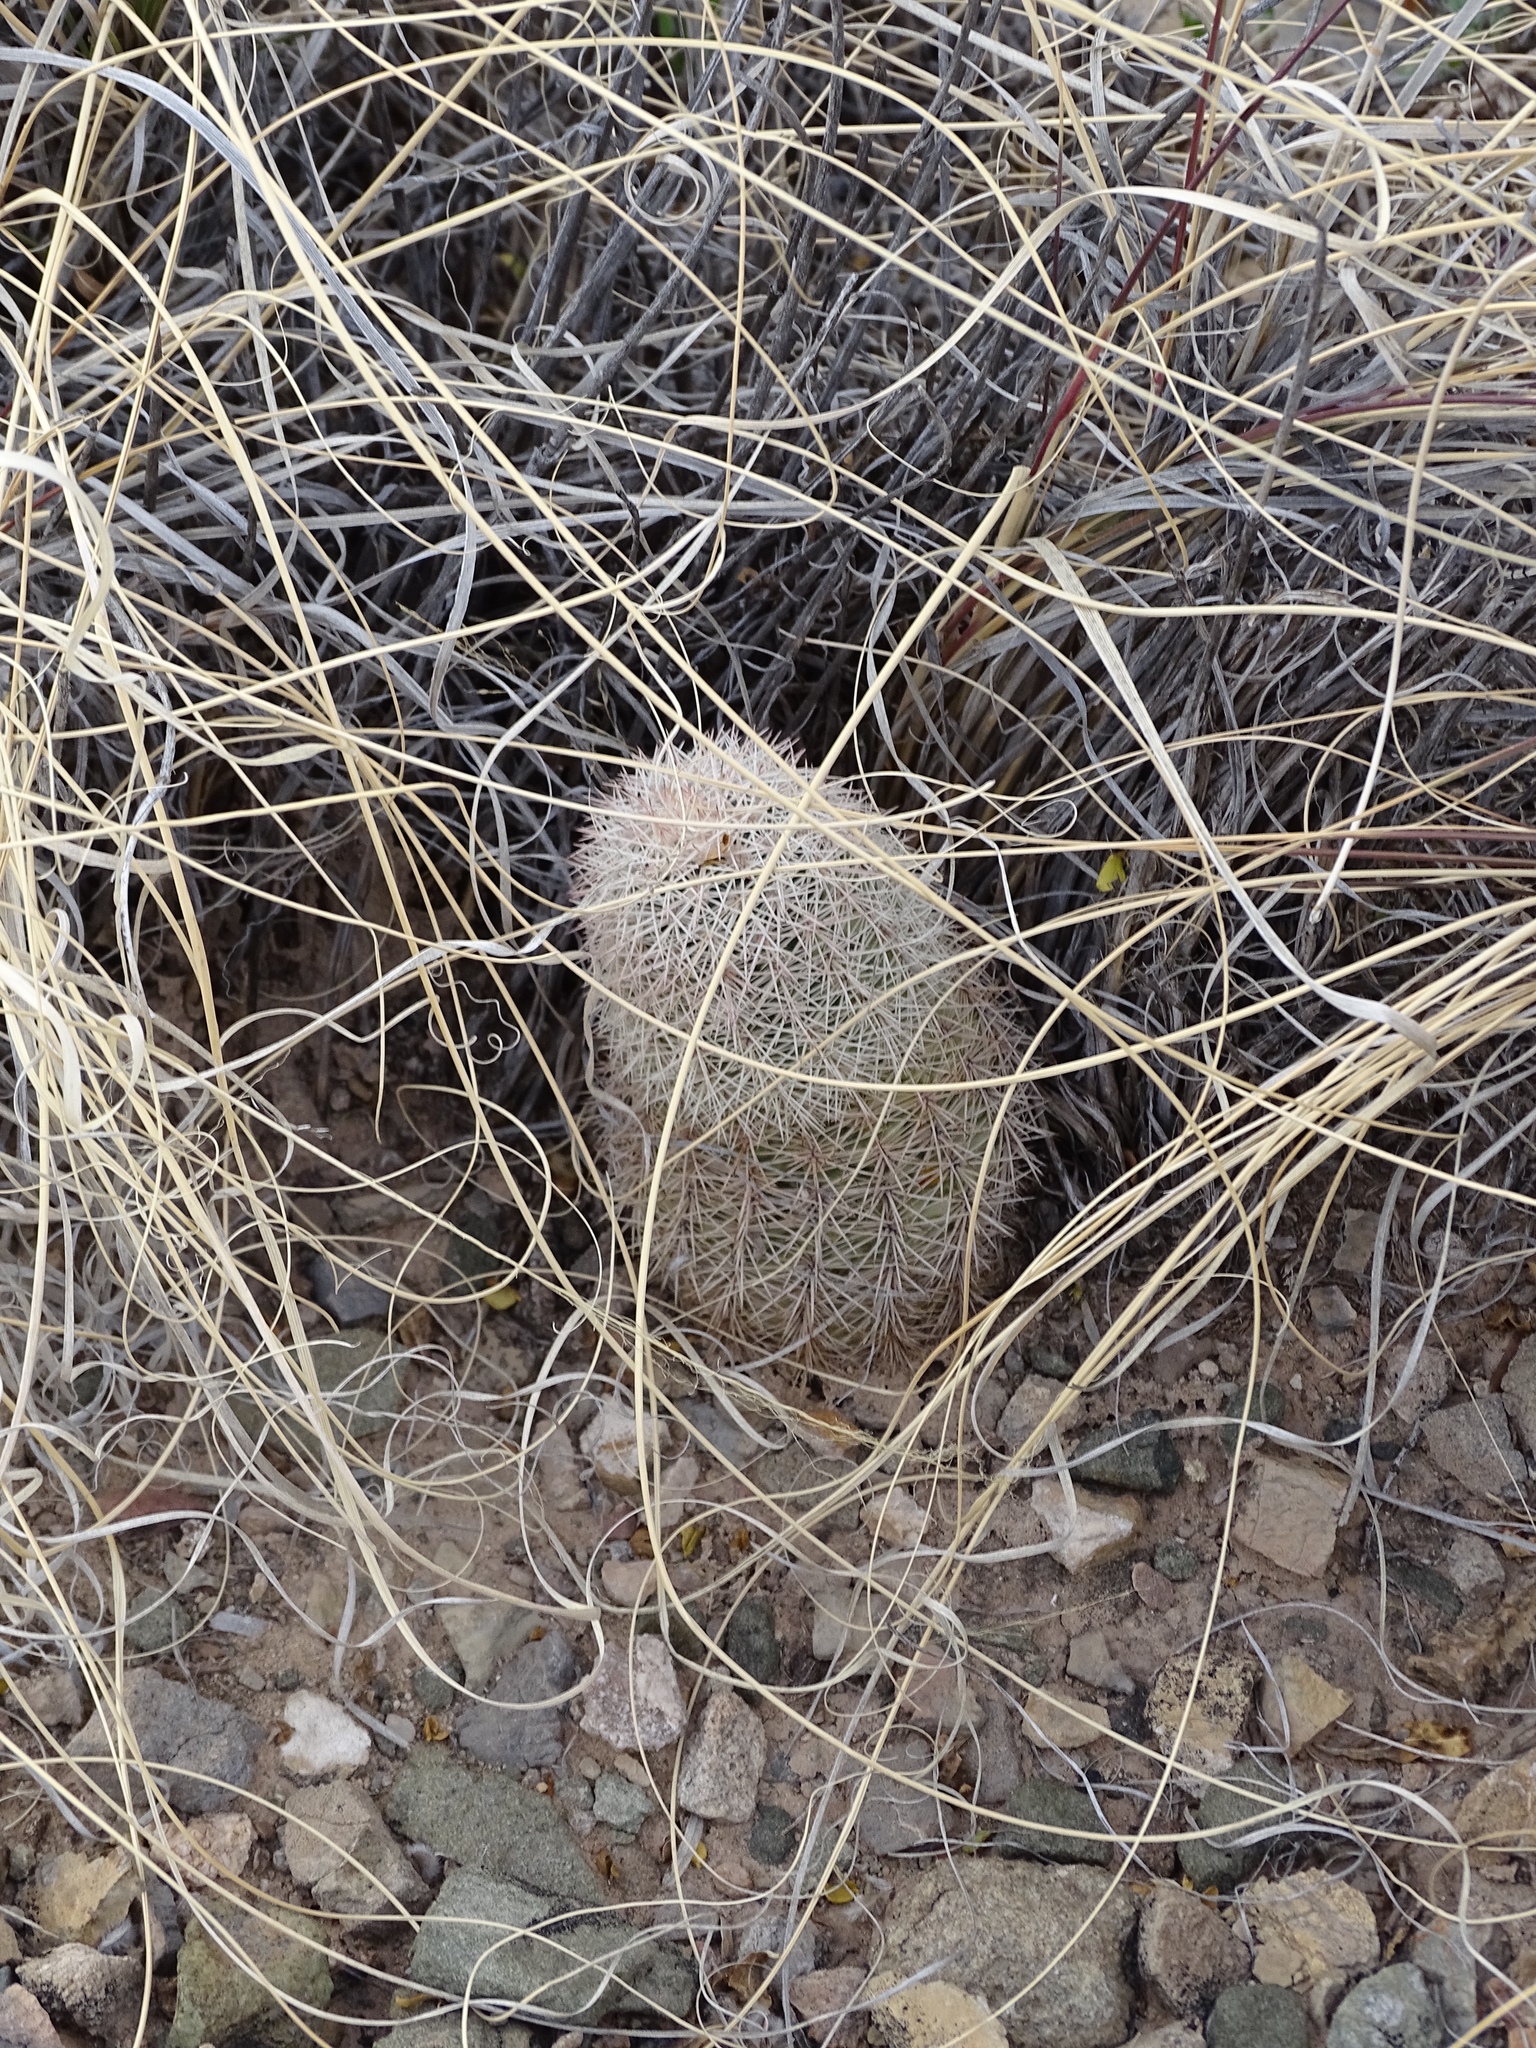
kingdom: Plantae
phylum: Tracheophyta
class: Magnoliopsida
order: Caryophyllales
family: Cactaceae
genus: Echinocereus
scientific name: Echinocereus dasyacanthus
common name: Spiny hedgehog cactus
